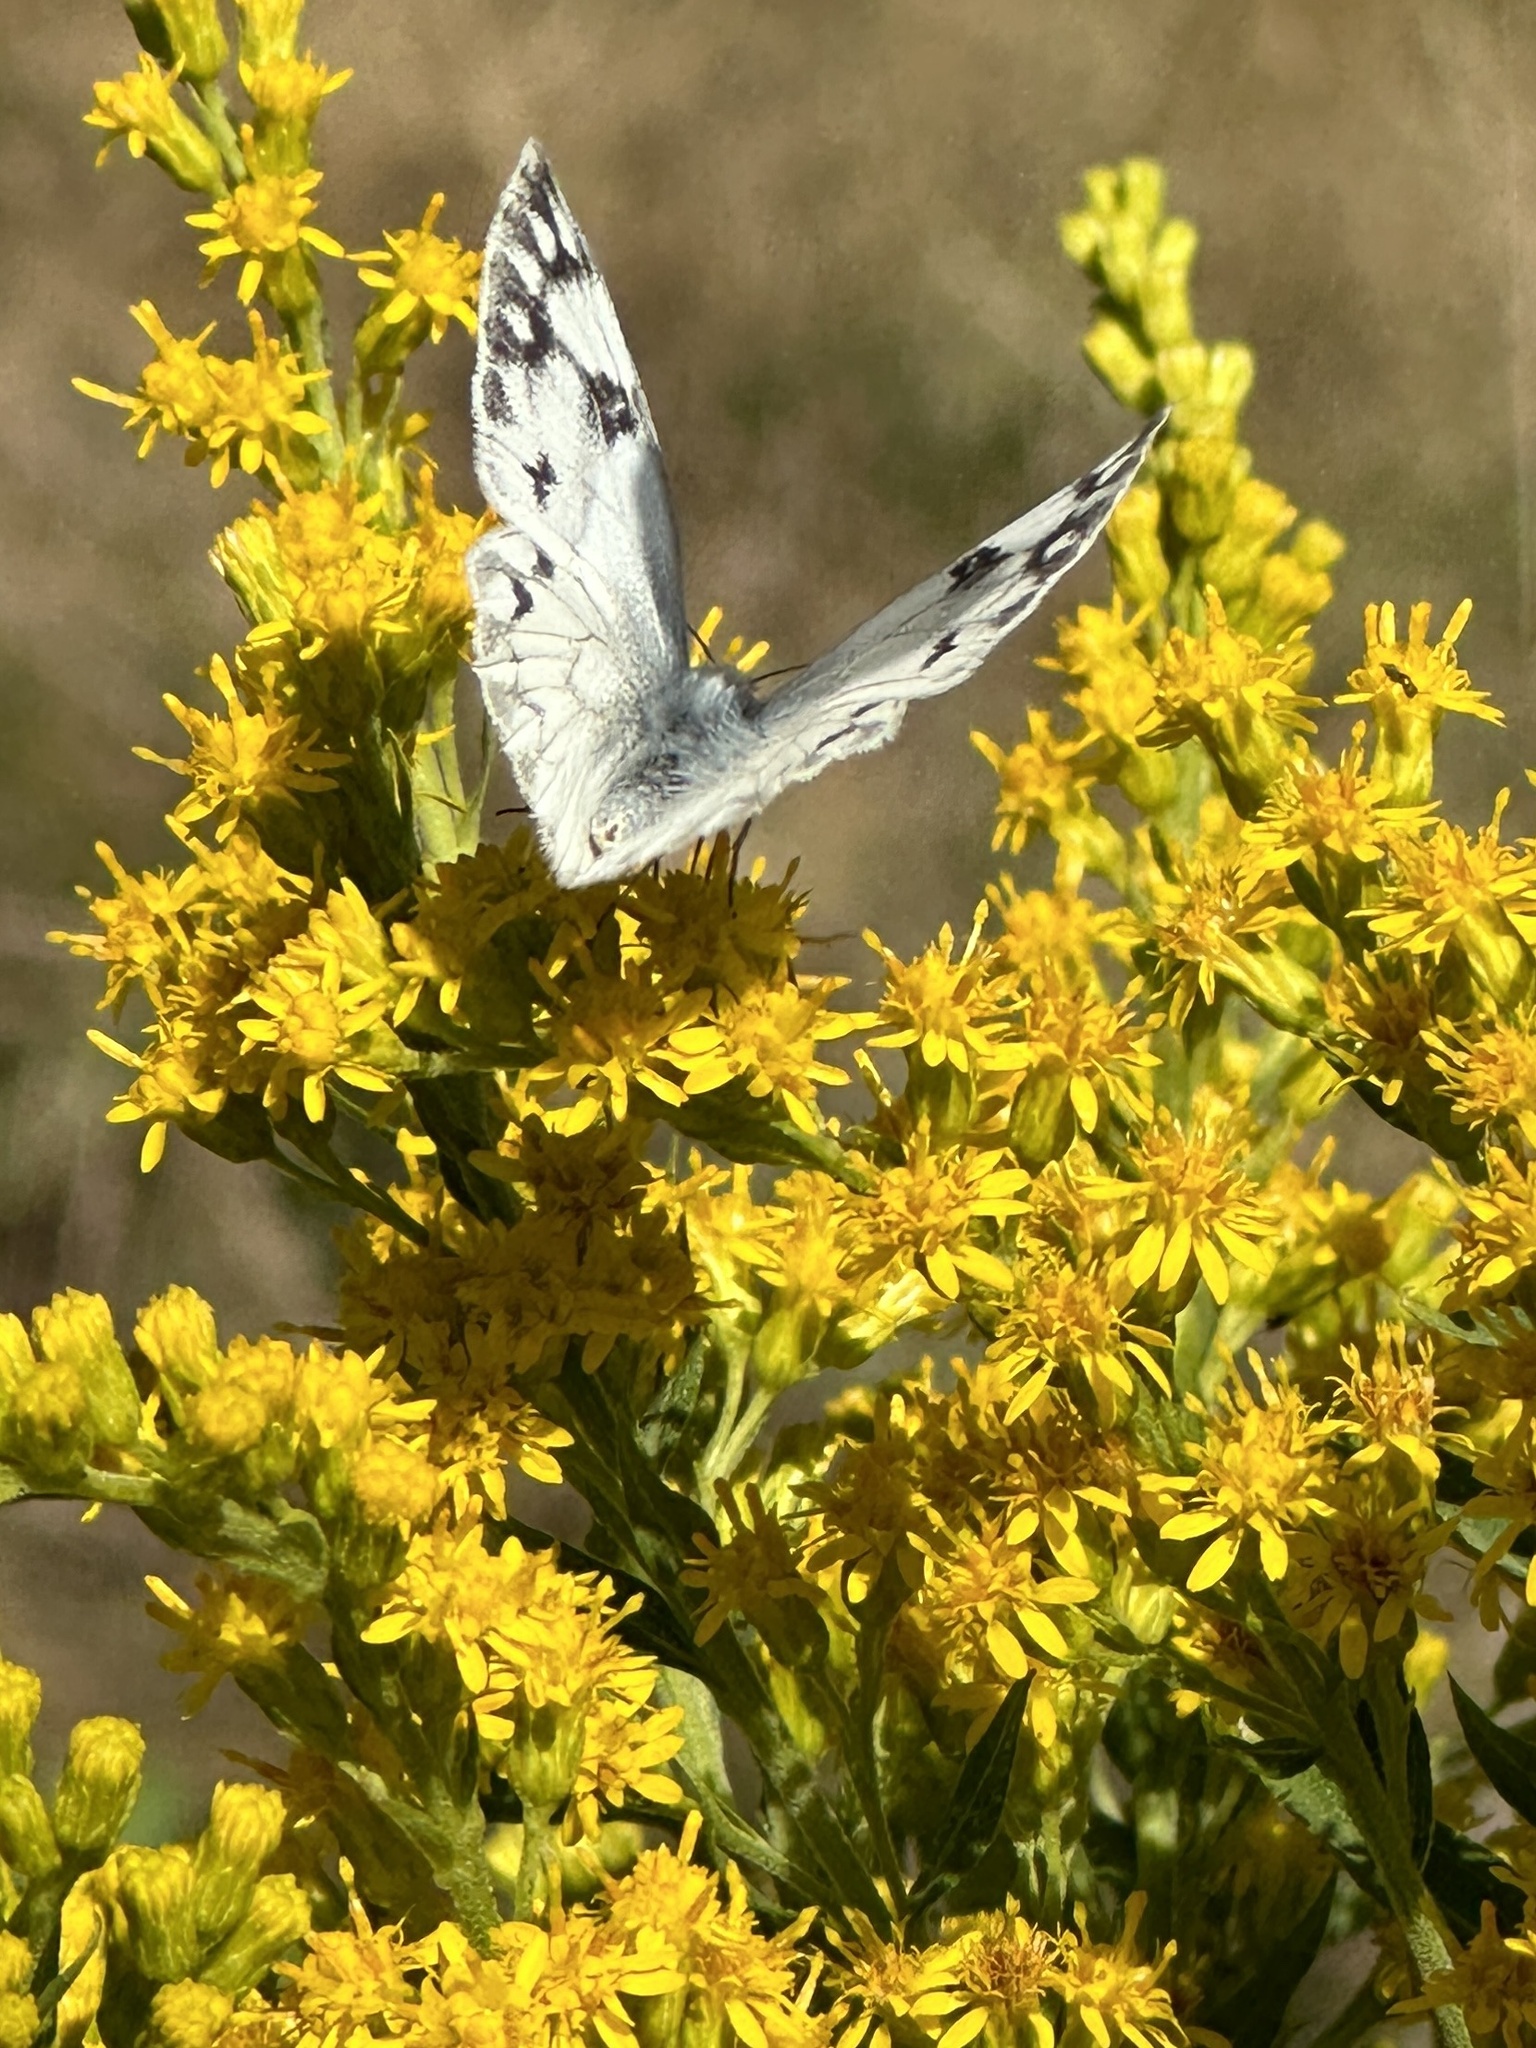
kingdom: Animalia
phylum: Arthropoda
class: Insecta
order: Lepidoptera
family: Pieridae
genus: Pontia
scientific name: Pontia occidentalis
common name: Western white
